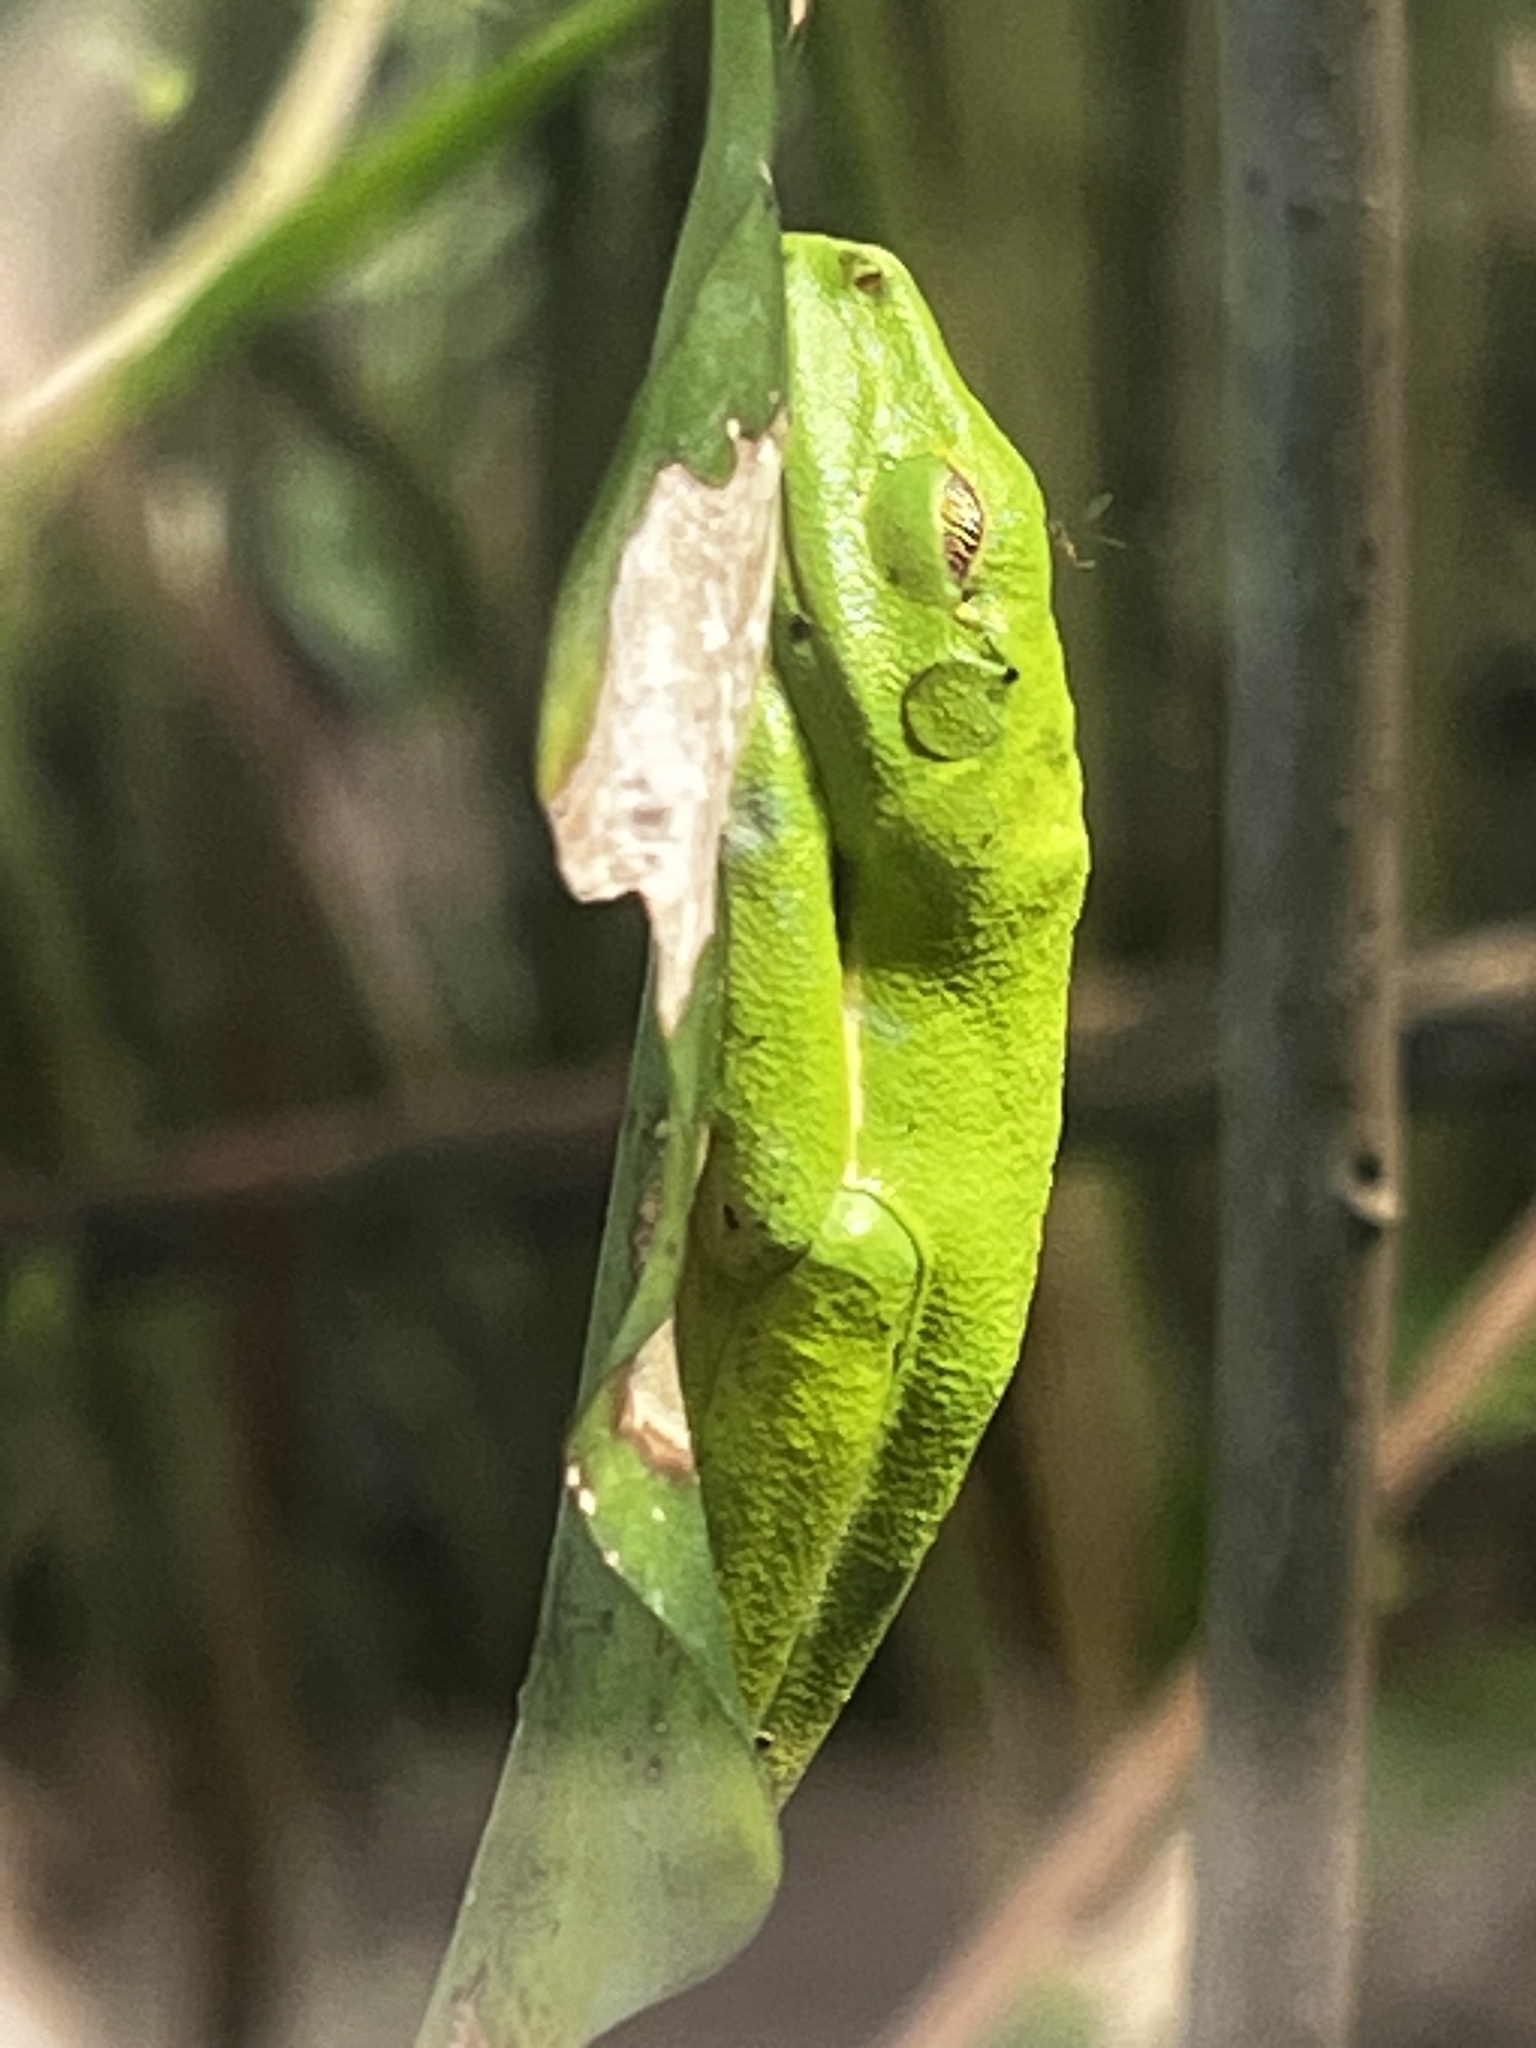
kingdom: Animalia
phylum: Chordata
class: Amphibia
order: Anura
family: Phyllomedusidae
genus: Agalychnis
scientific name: Agalychnis callidryas
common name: Red-eyed treefrog
